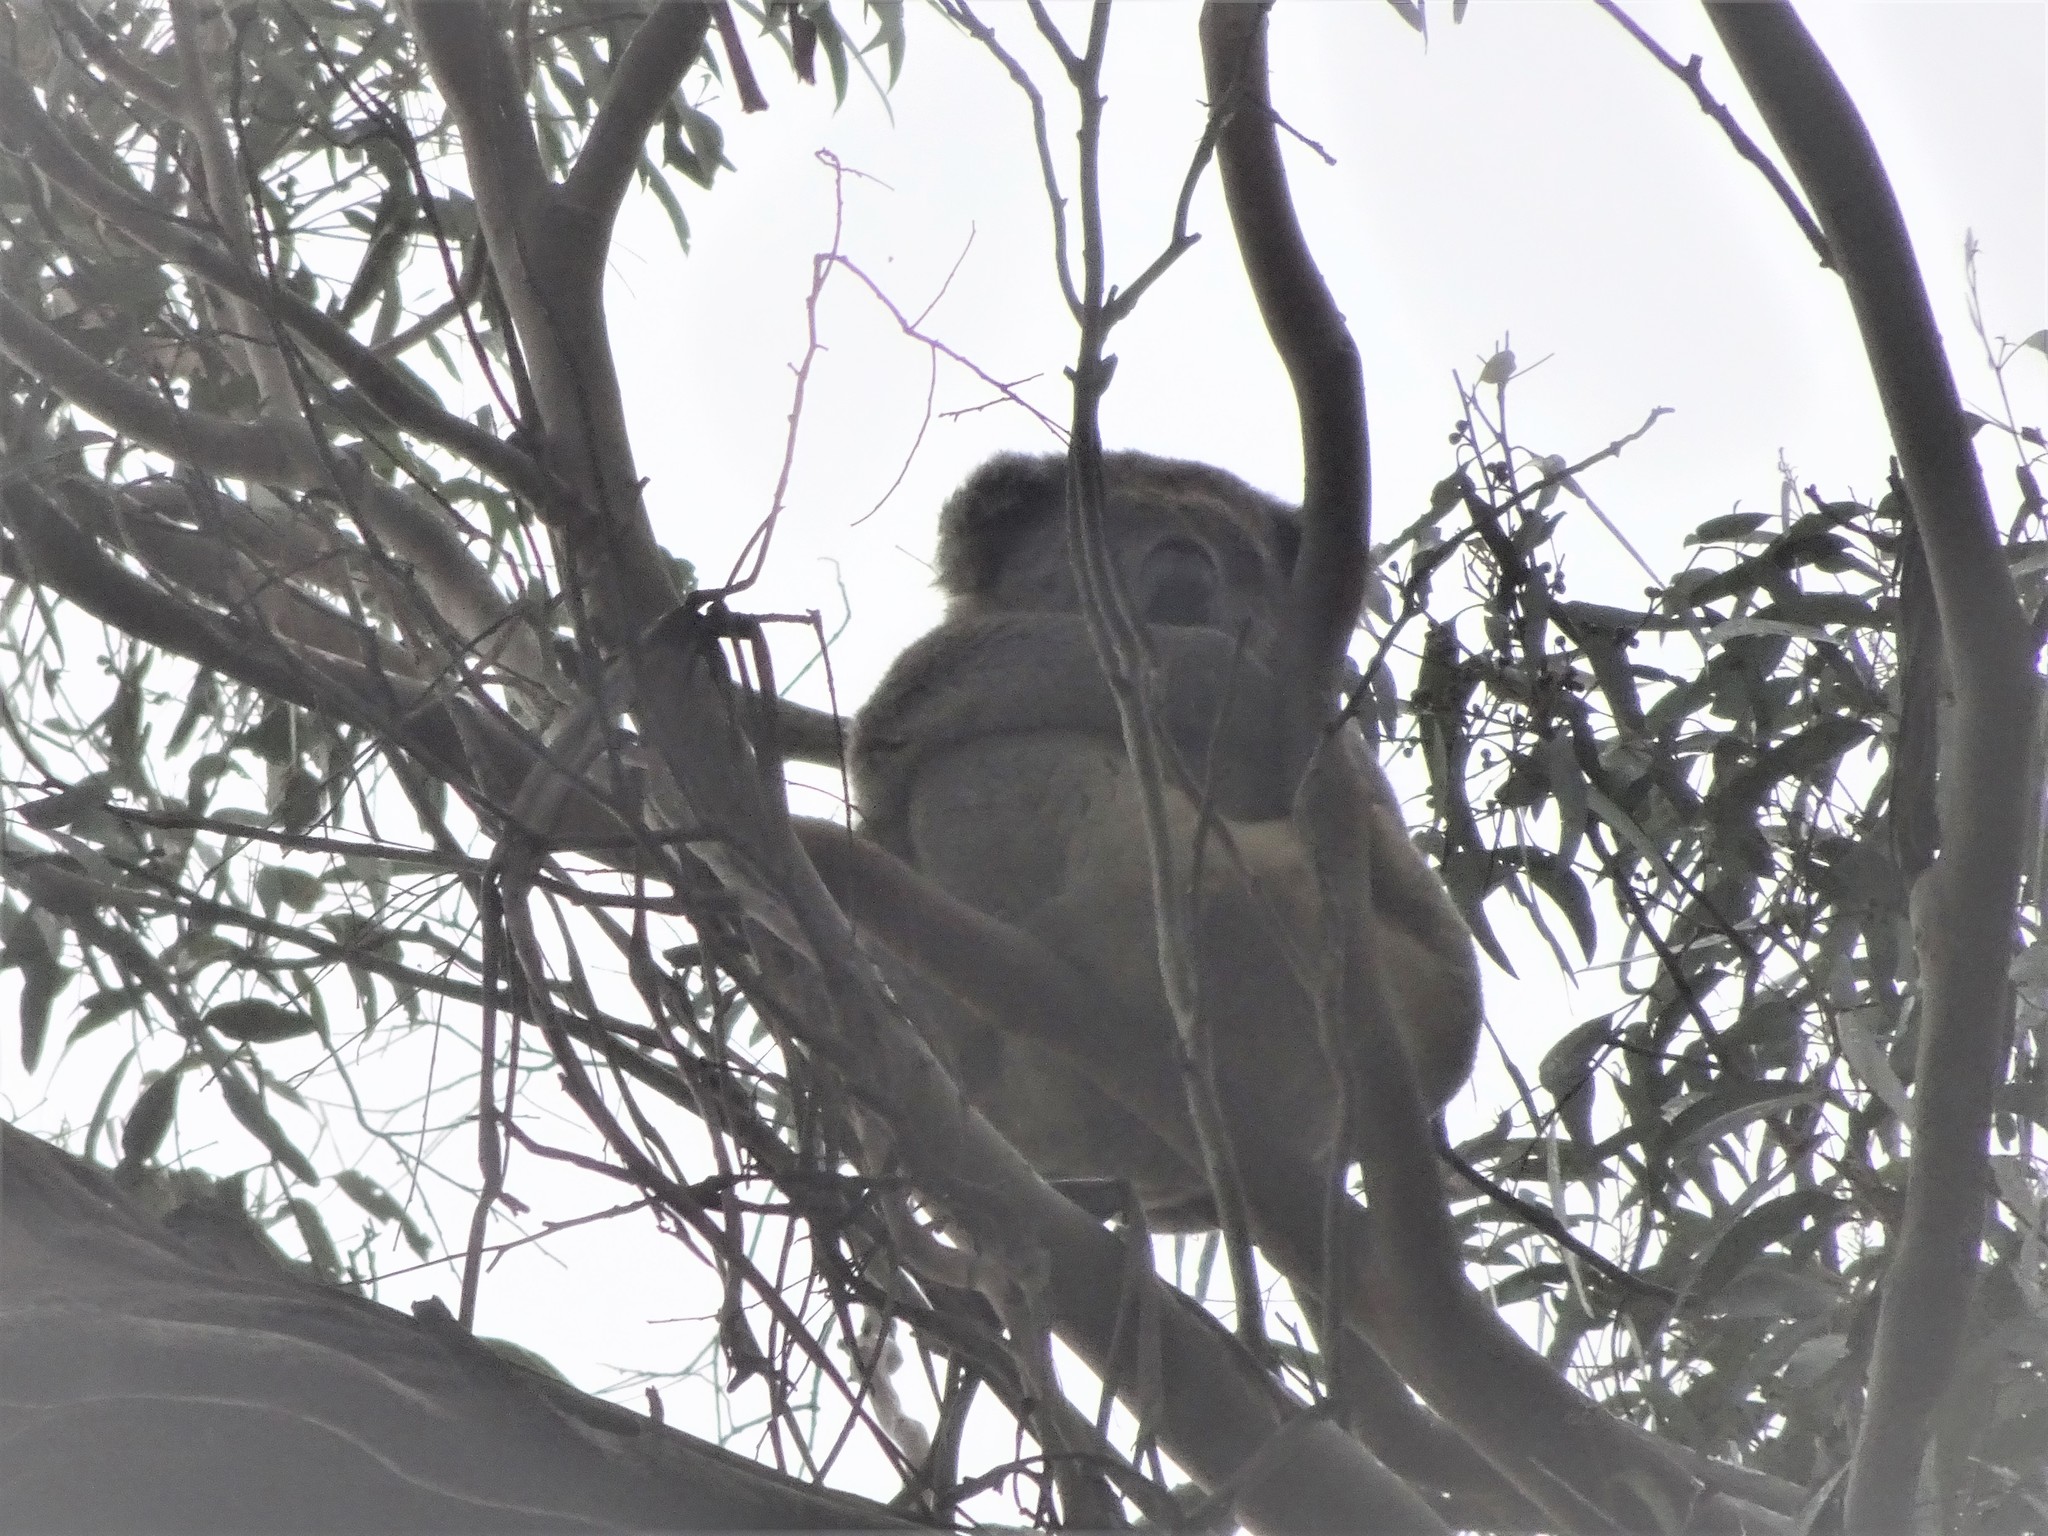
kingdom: Animalia
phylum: Chordata
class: Mammalia
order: Diprotodontia
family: Phascolarctidae
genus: Phascolarctos
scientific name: Phascolarctos cinereus
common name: Koala
